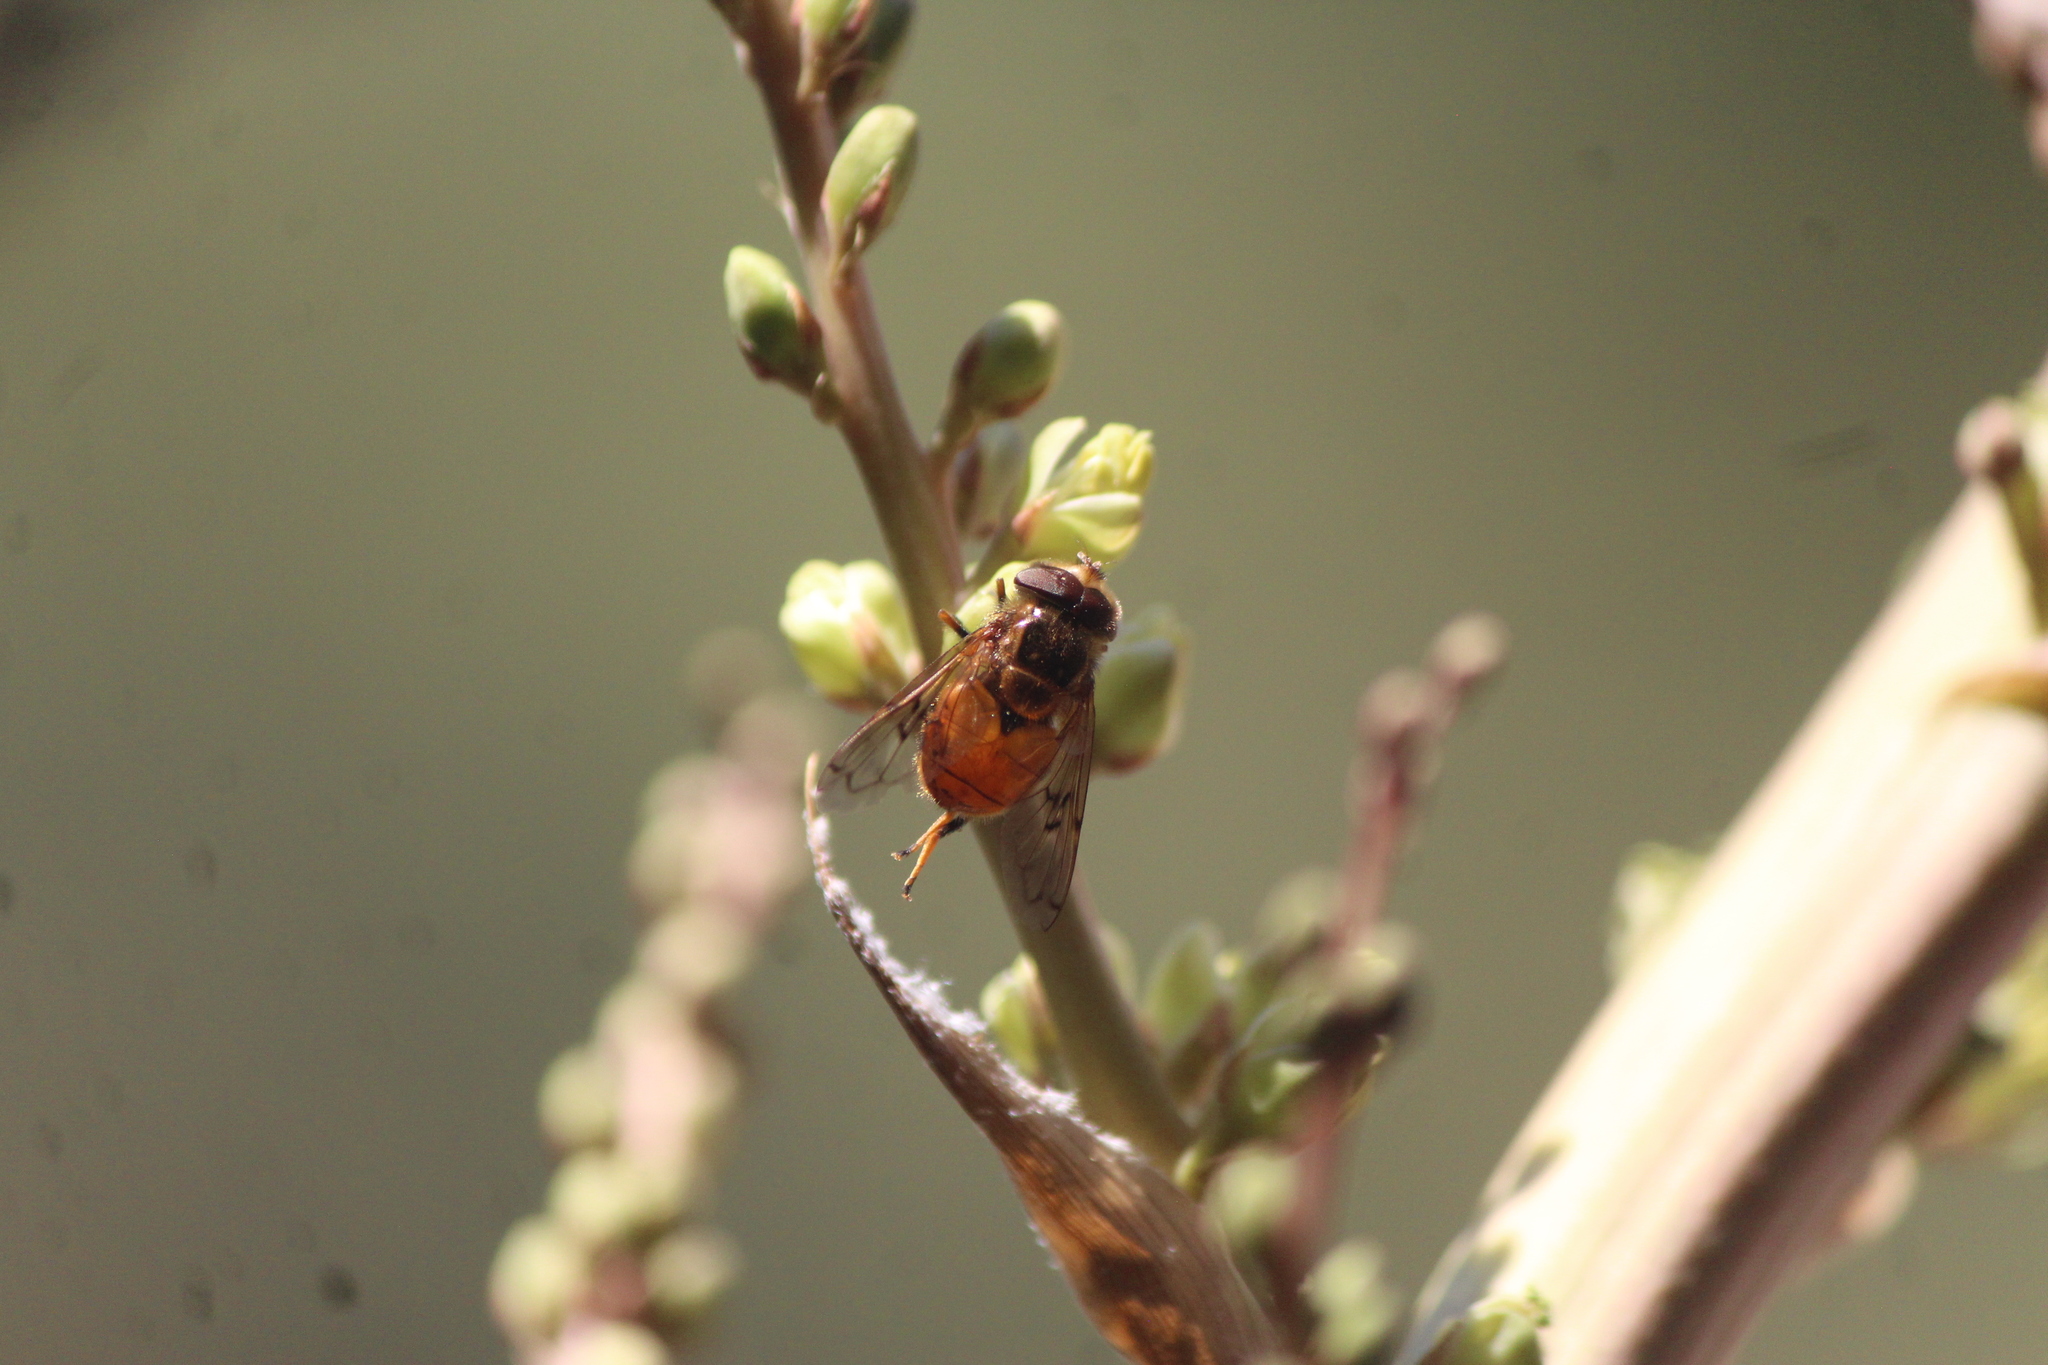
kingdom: Animalia
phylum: Arthropoda
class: Insecta
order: Diptera
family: Syrphidae
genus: Copestylum
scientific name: Copestylum haagii
